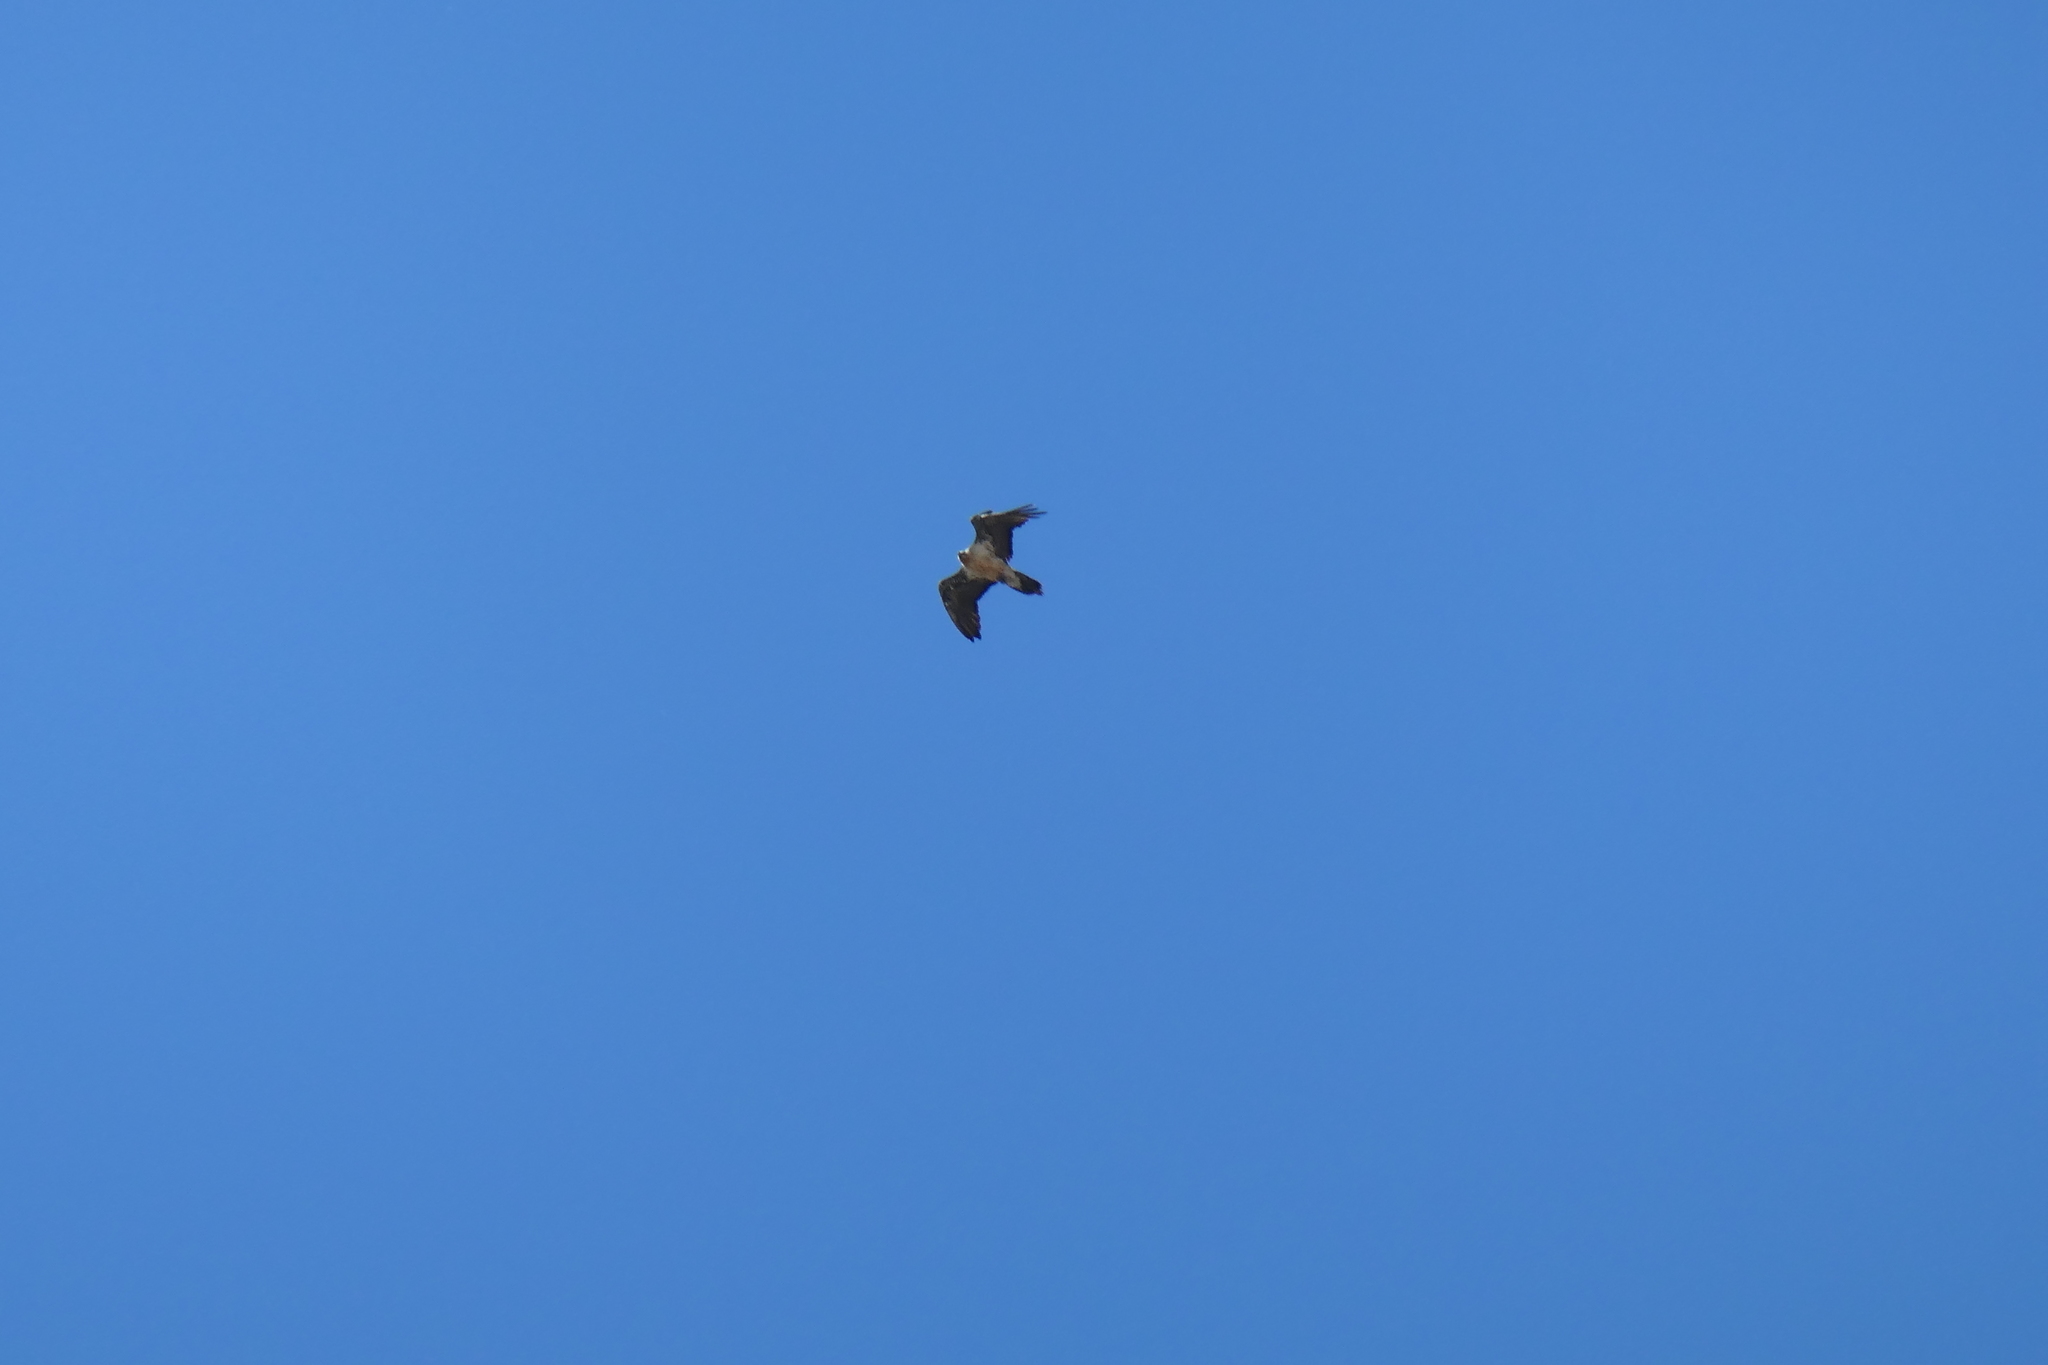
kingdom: Animalia
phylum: Chordata
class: Aves
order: Accipitriformes
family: Accipitridae
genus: Gypaetus
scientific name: Gypaetus barbatus
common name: Bearded vulture
